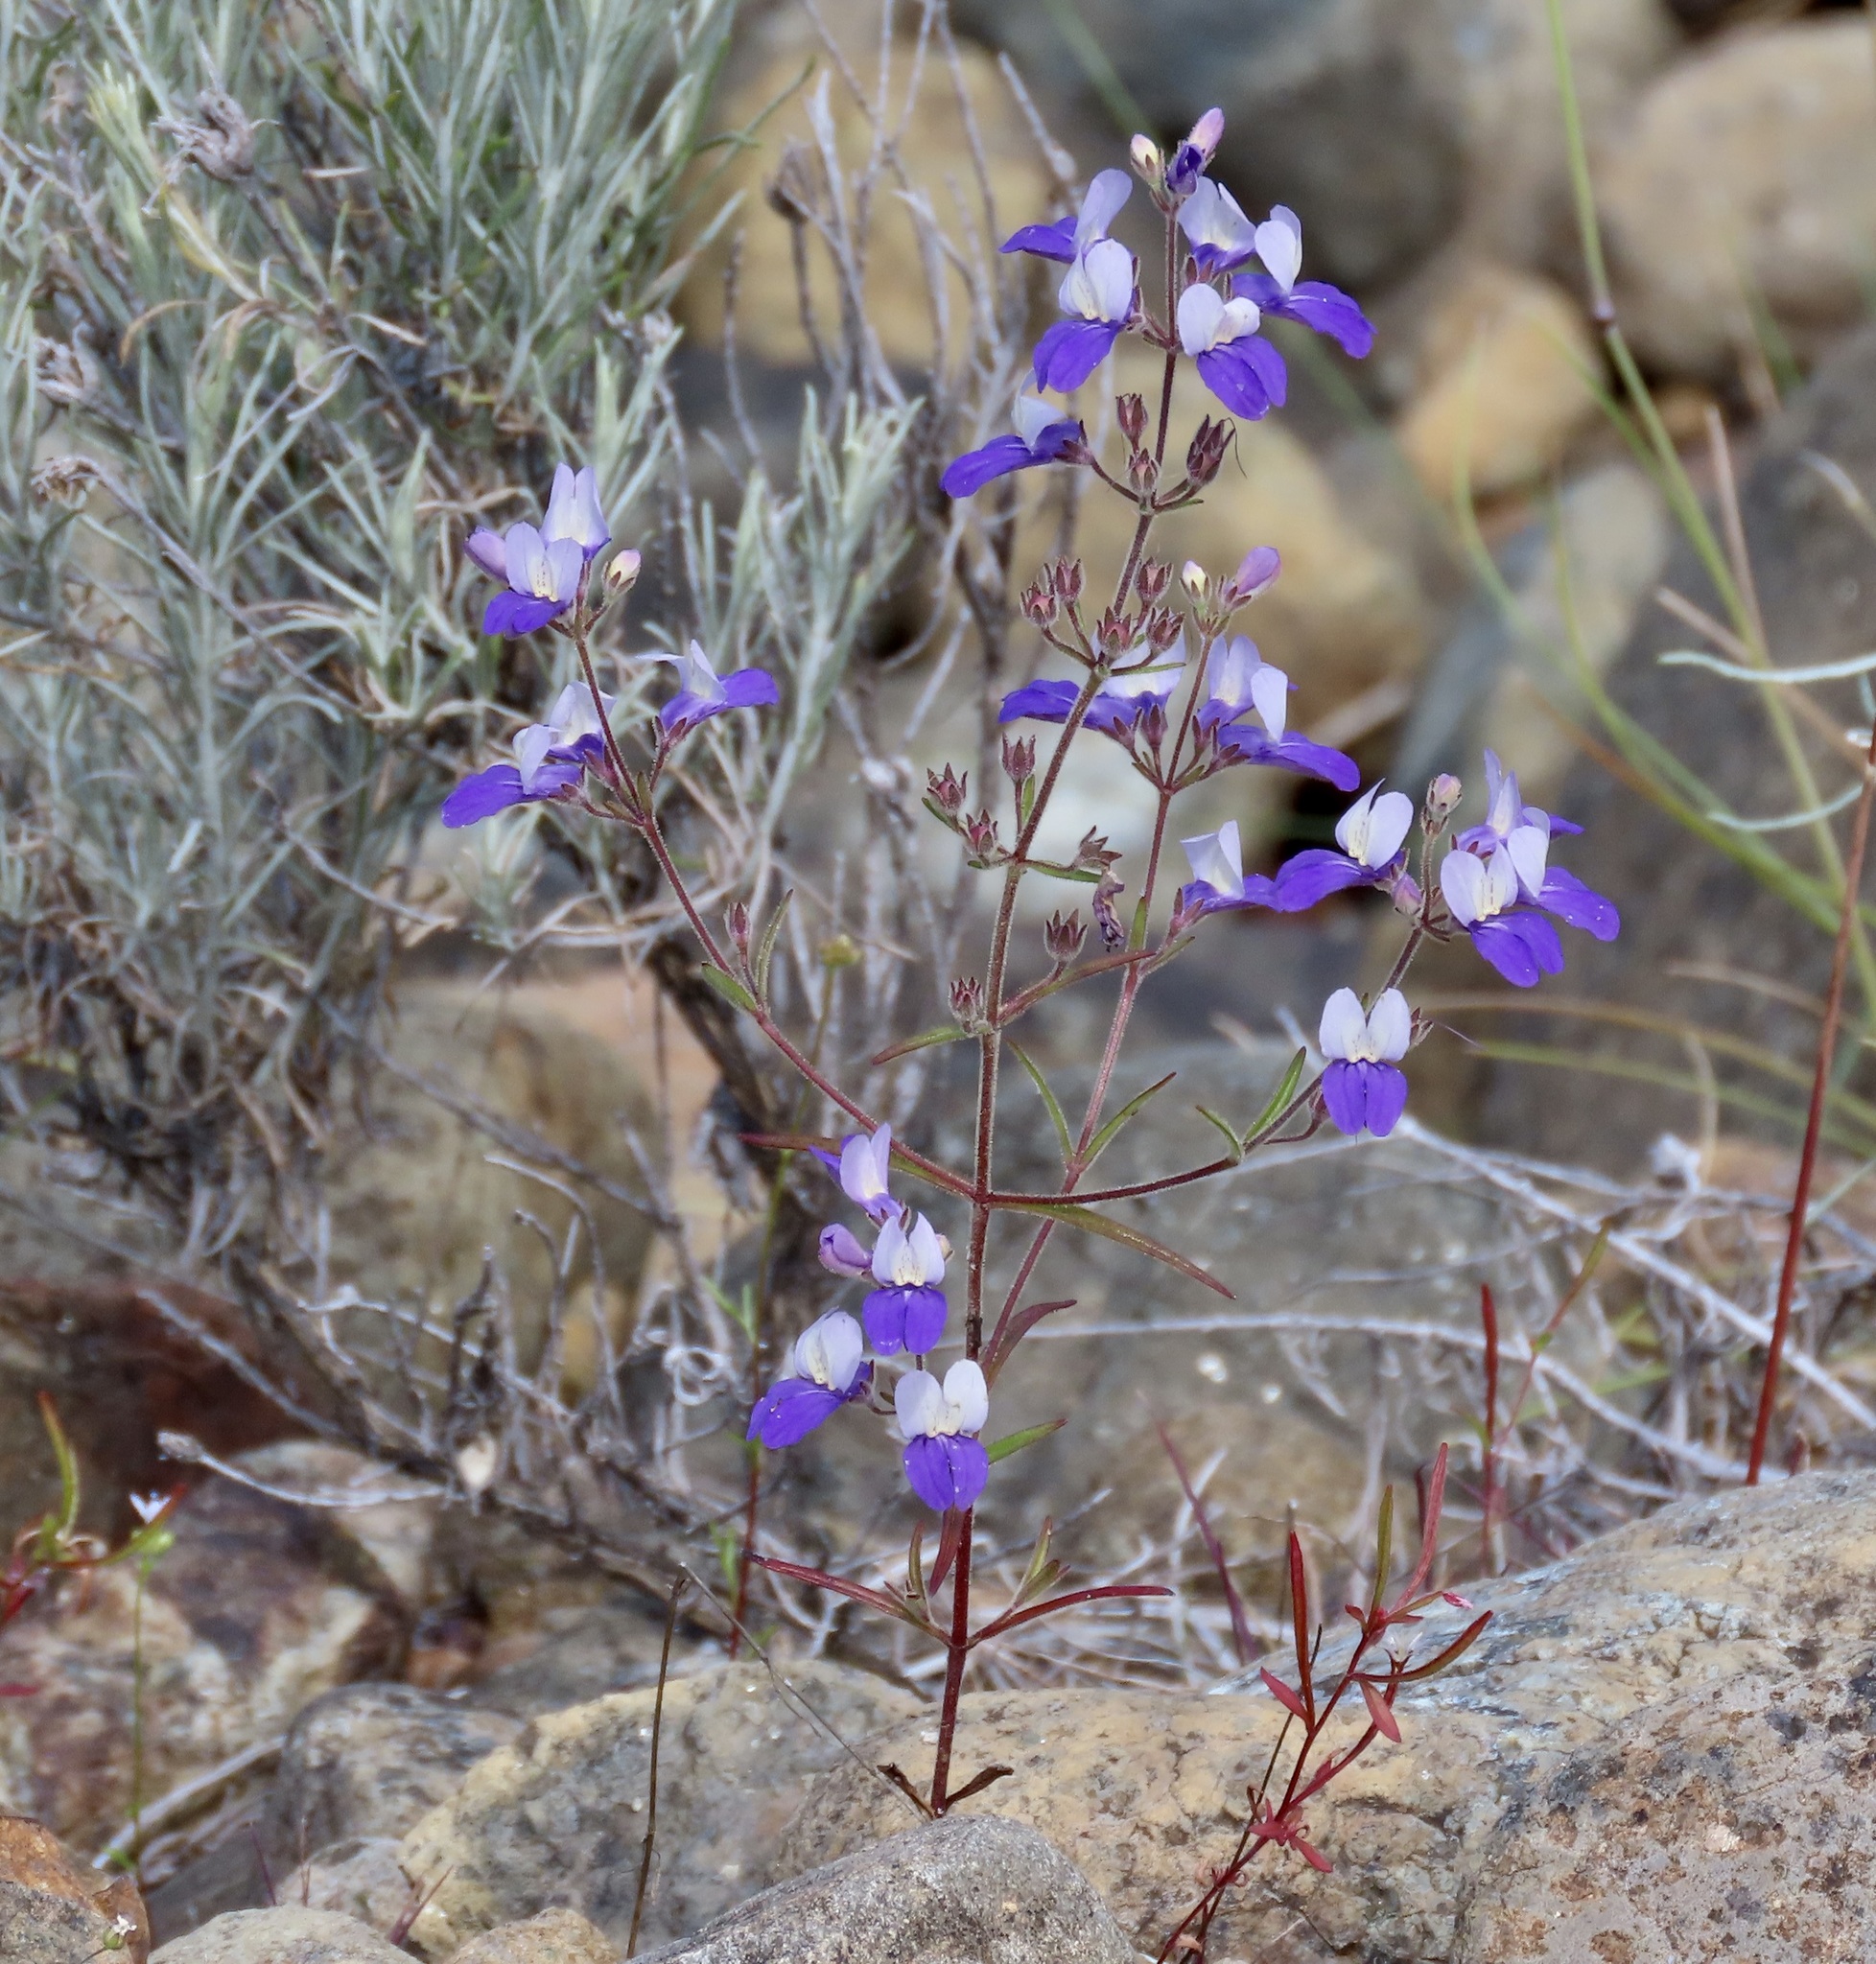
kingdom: Plantae
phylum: Tracheophyta
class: Magnoliopsida
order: Lamiales
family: Plantaginaceae
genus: Collinsia
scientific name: Collinsia linearis
